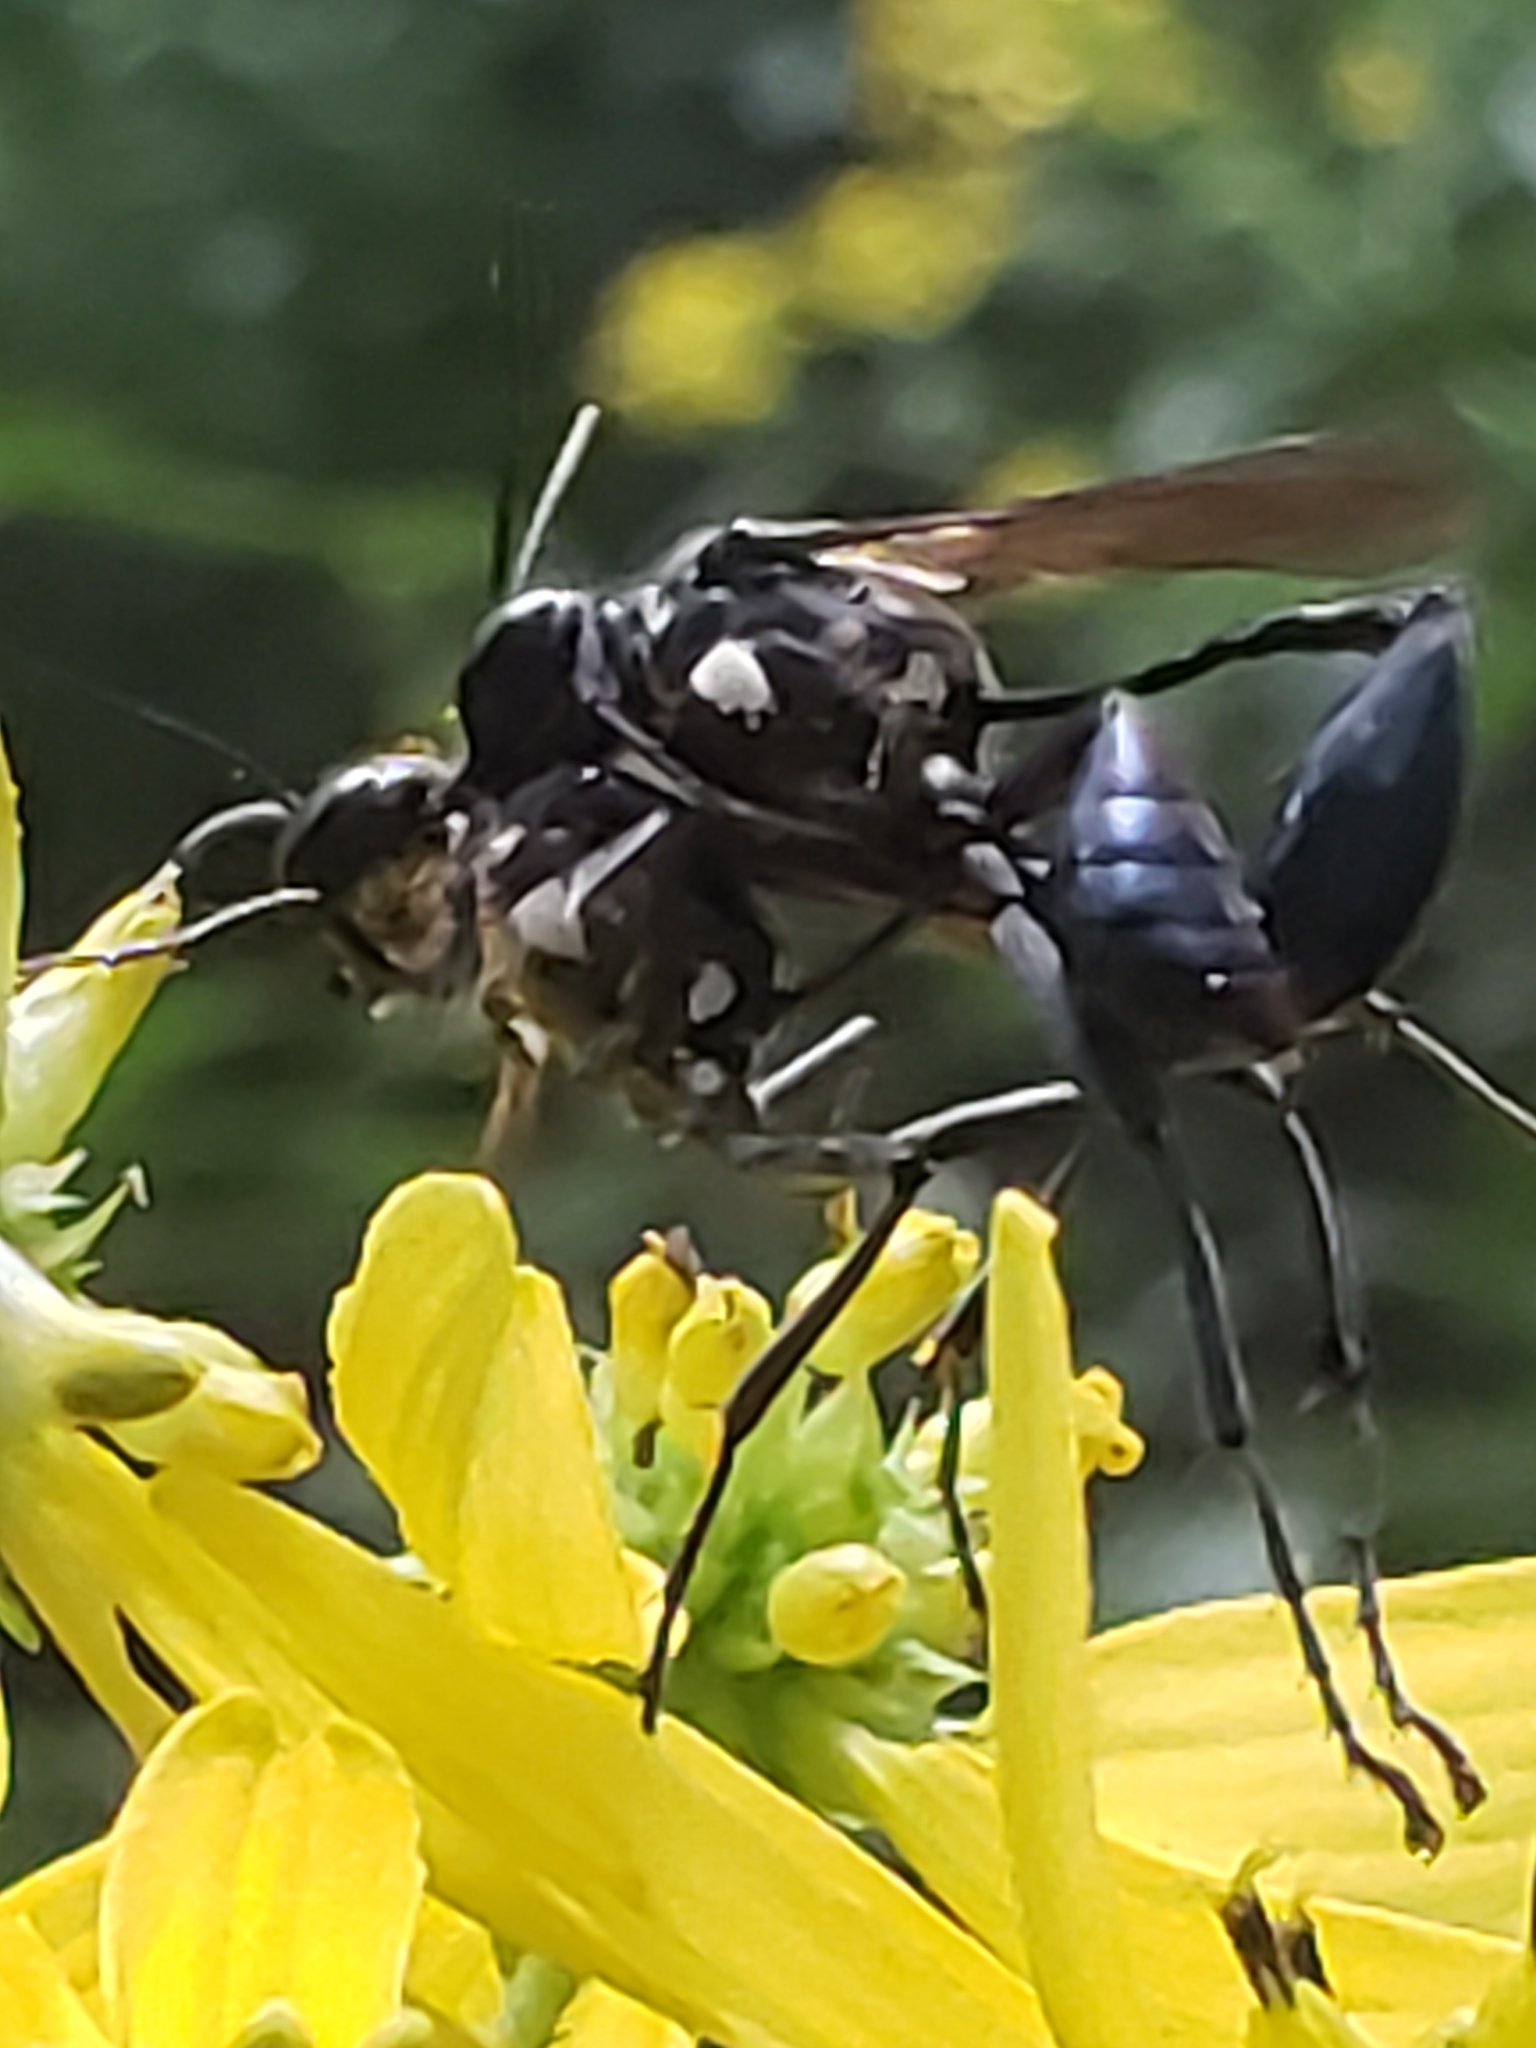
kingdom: Animalia
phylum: Arthropoda
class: Insecta
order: Hymenoptera
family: Sphecidae
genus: Eremnophila
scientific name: Eremnophila aureonotata
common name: Gold-marked thread-waisted wasp
